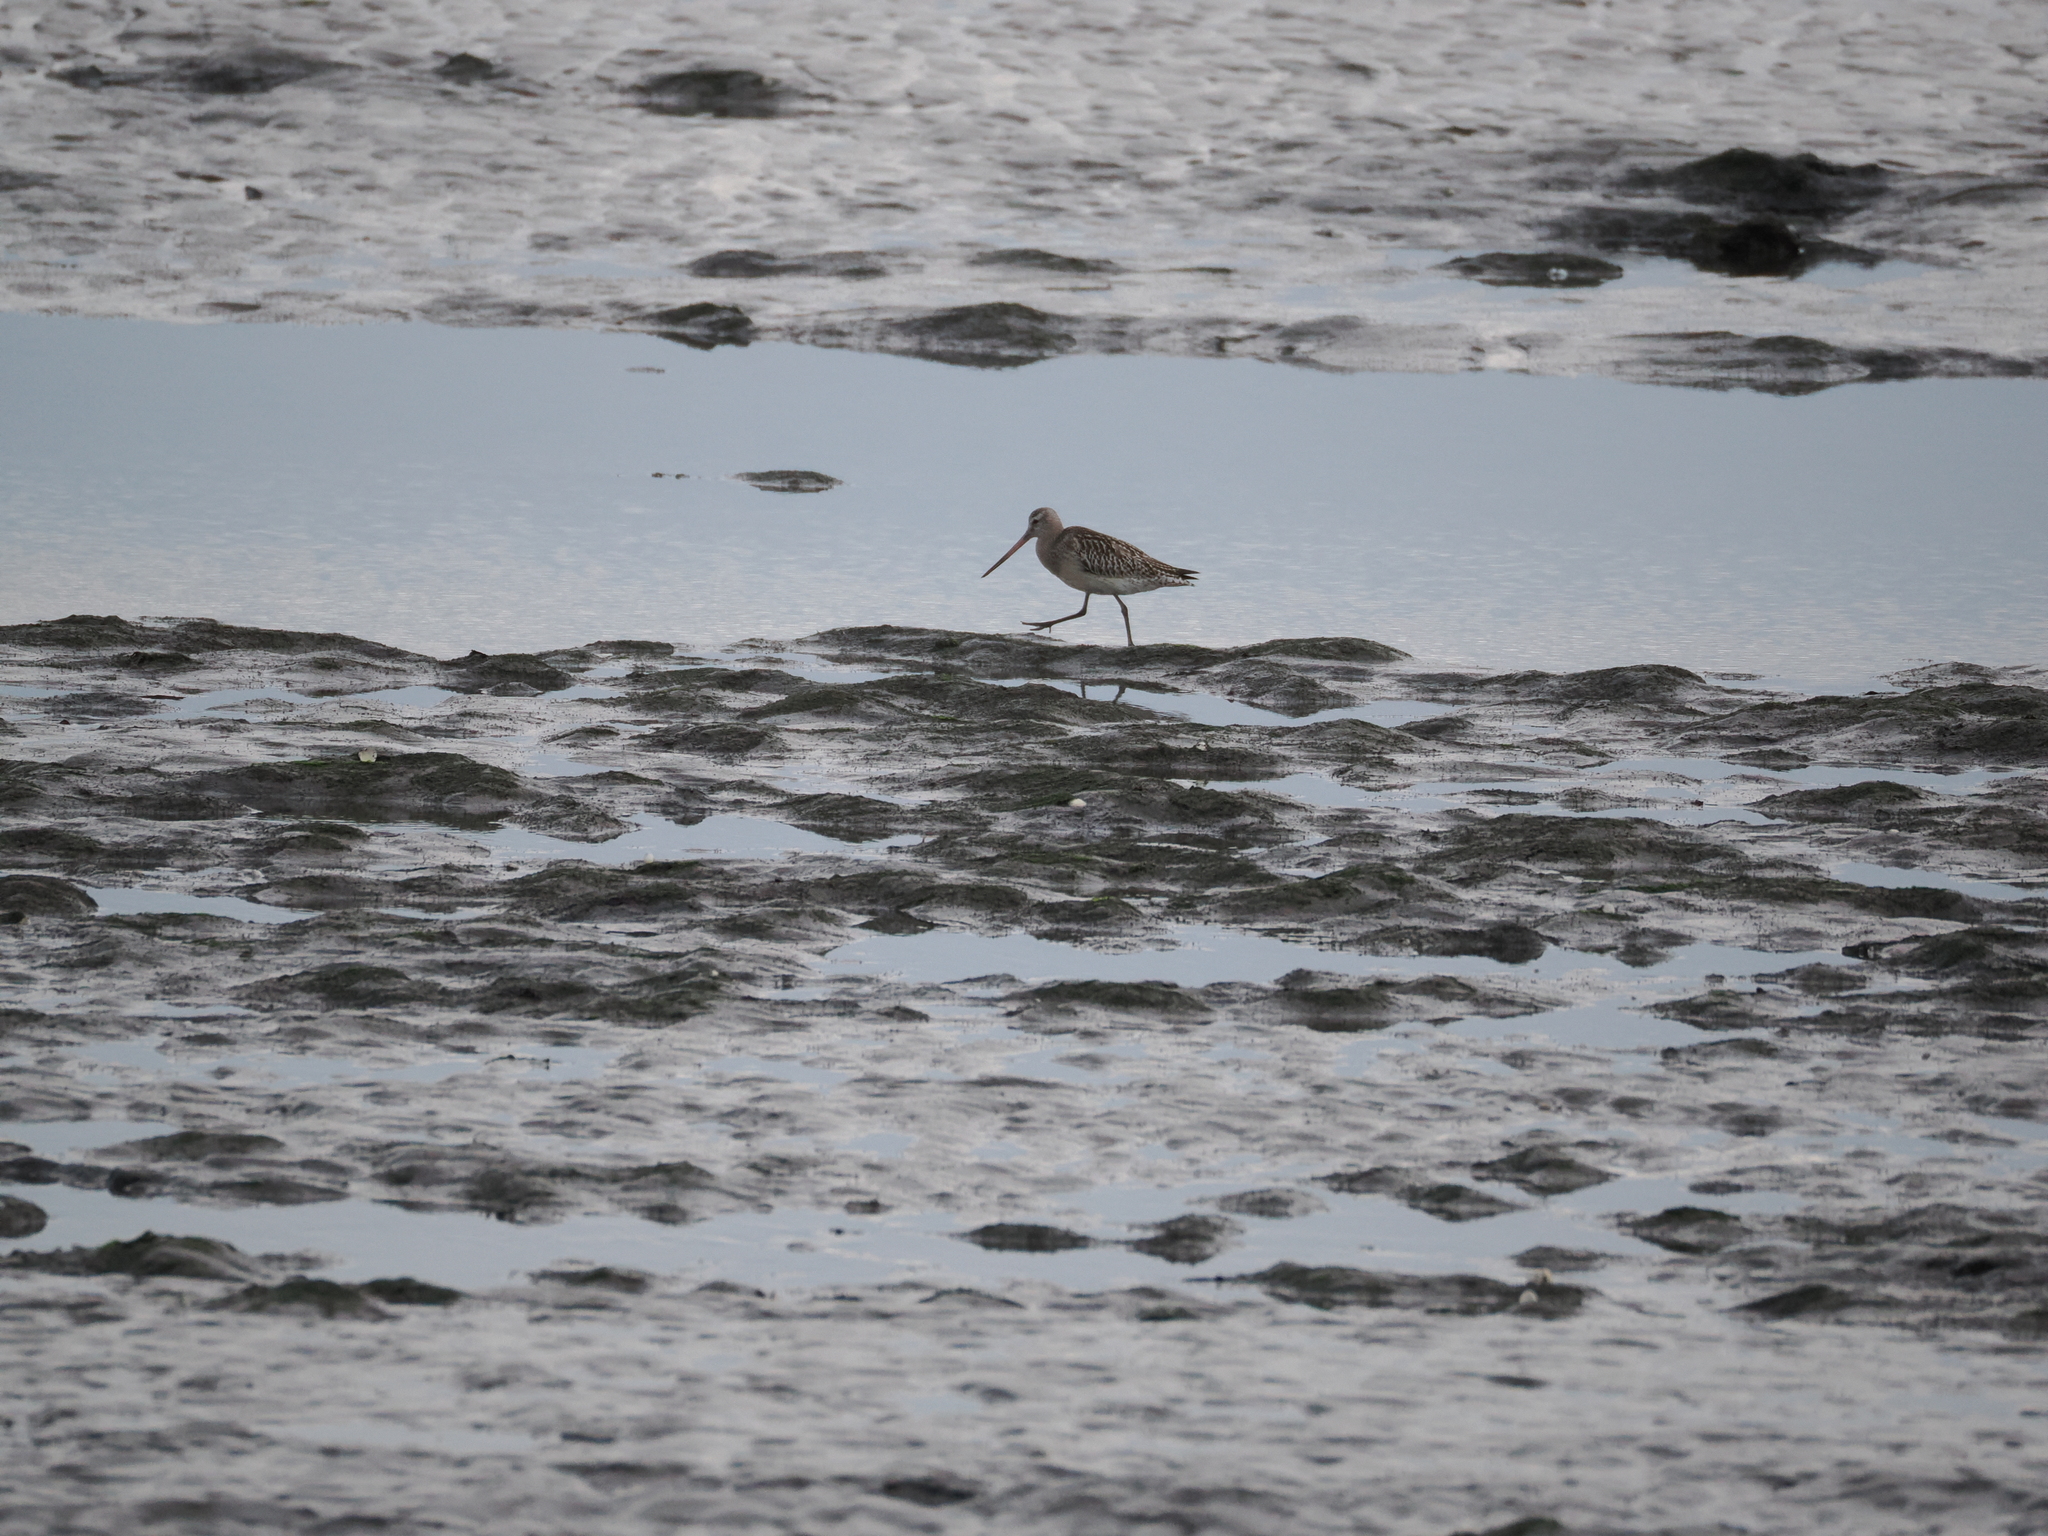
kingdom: Animalia
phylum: Chordata
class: Aves
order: Charadriiformes
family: Scolopacidae
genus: Limosa
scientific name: Limosa lapponica
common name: Bar-tailed godwit
